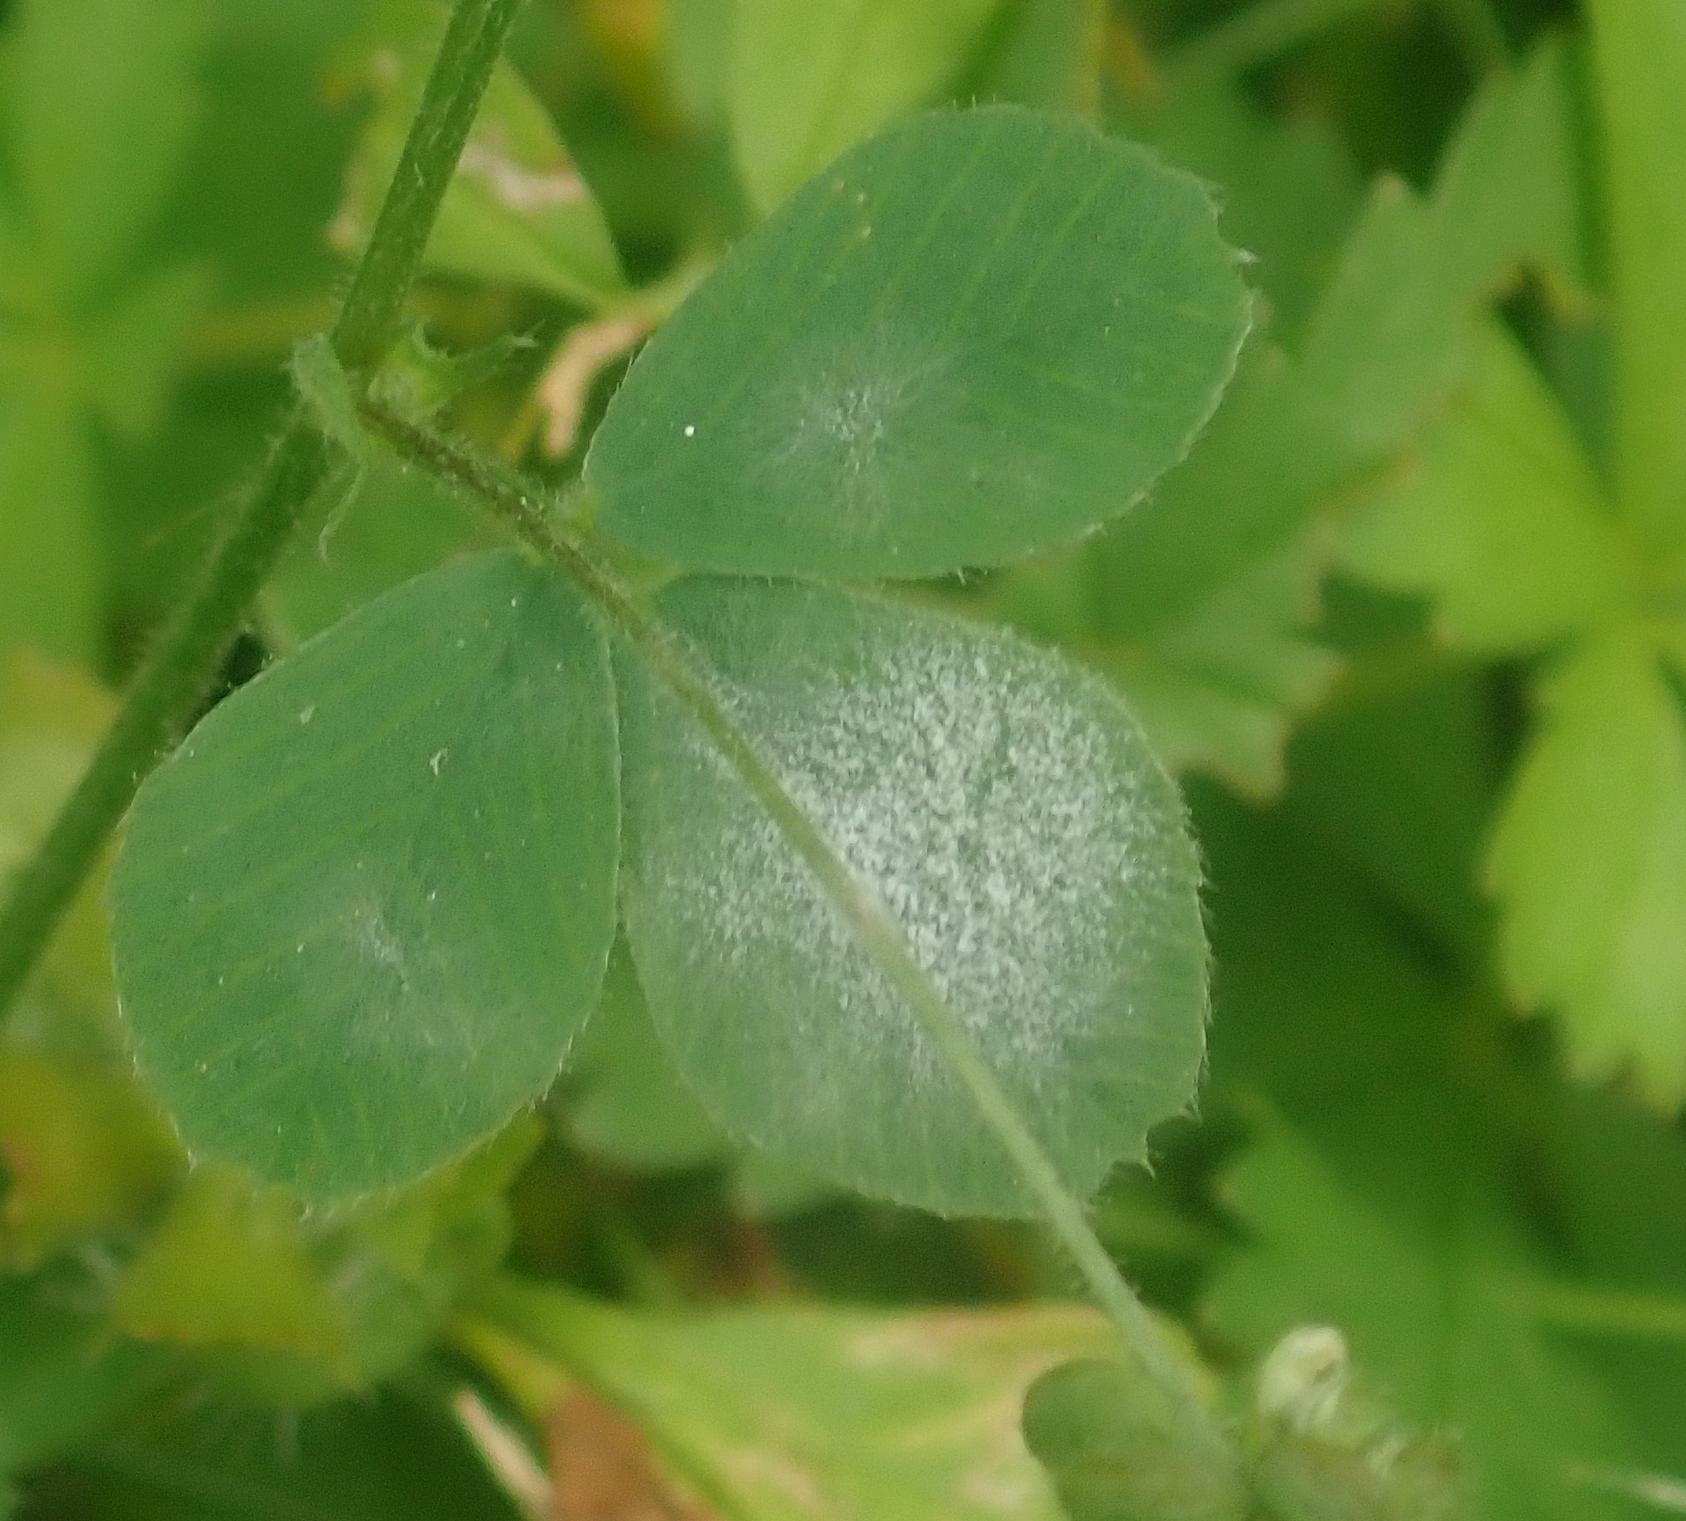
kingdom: Fungi
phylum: Ascomycota
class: Leotiomycetes
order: Helotiales
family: Erysiphaceae
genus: Erysiphe
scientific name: Erysiphe pisi
